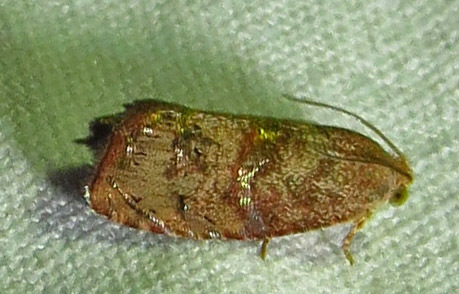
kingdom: Animalia
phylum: Arthropoda
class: Insecta
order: Lepidoptera
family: Tortricidae
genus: Cydia
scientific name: Cydia latiferreana
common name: Filbertworm moth
